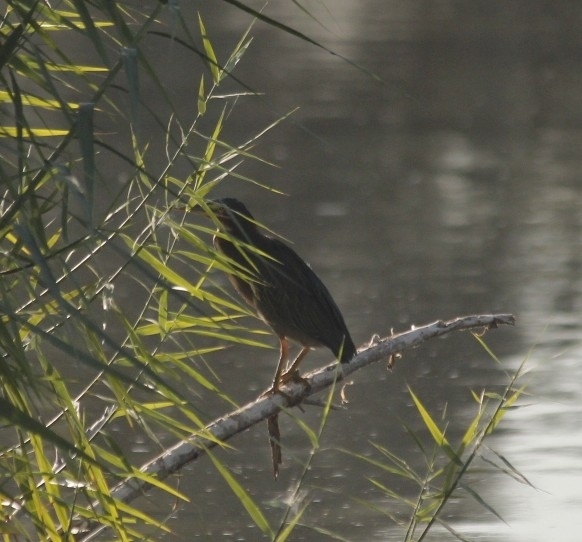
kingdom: Animalia
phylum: Chordata
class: Aves
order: Pelecaniformes
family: Ardeidae
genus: Butorides
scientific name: Butorides virescens
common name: Green heron
